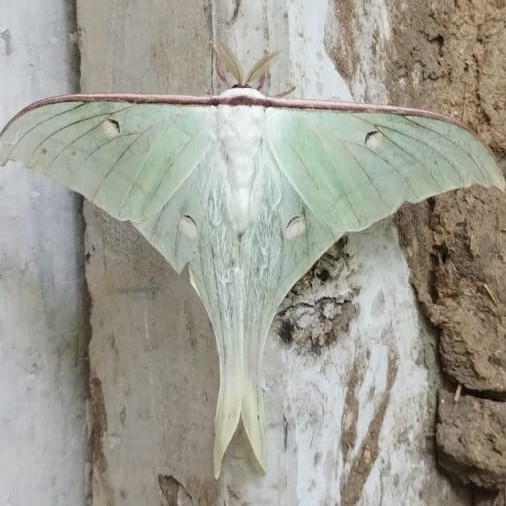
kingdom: Animalia
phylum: Arthropoda
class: Insecta
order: Lepidoptera
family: Saturniidae
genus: Actias
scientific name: Actias selene
